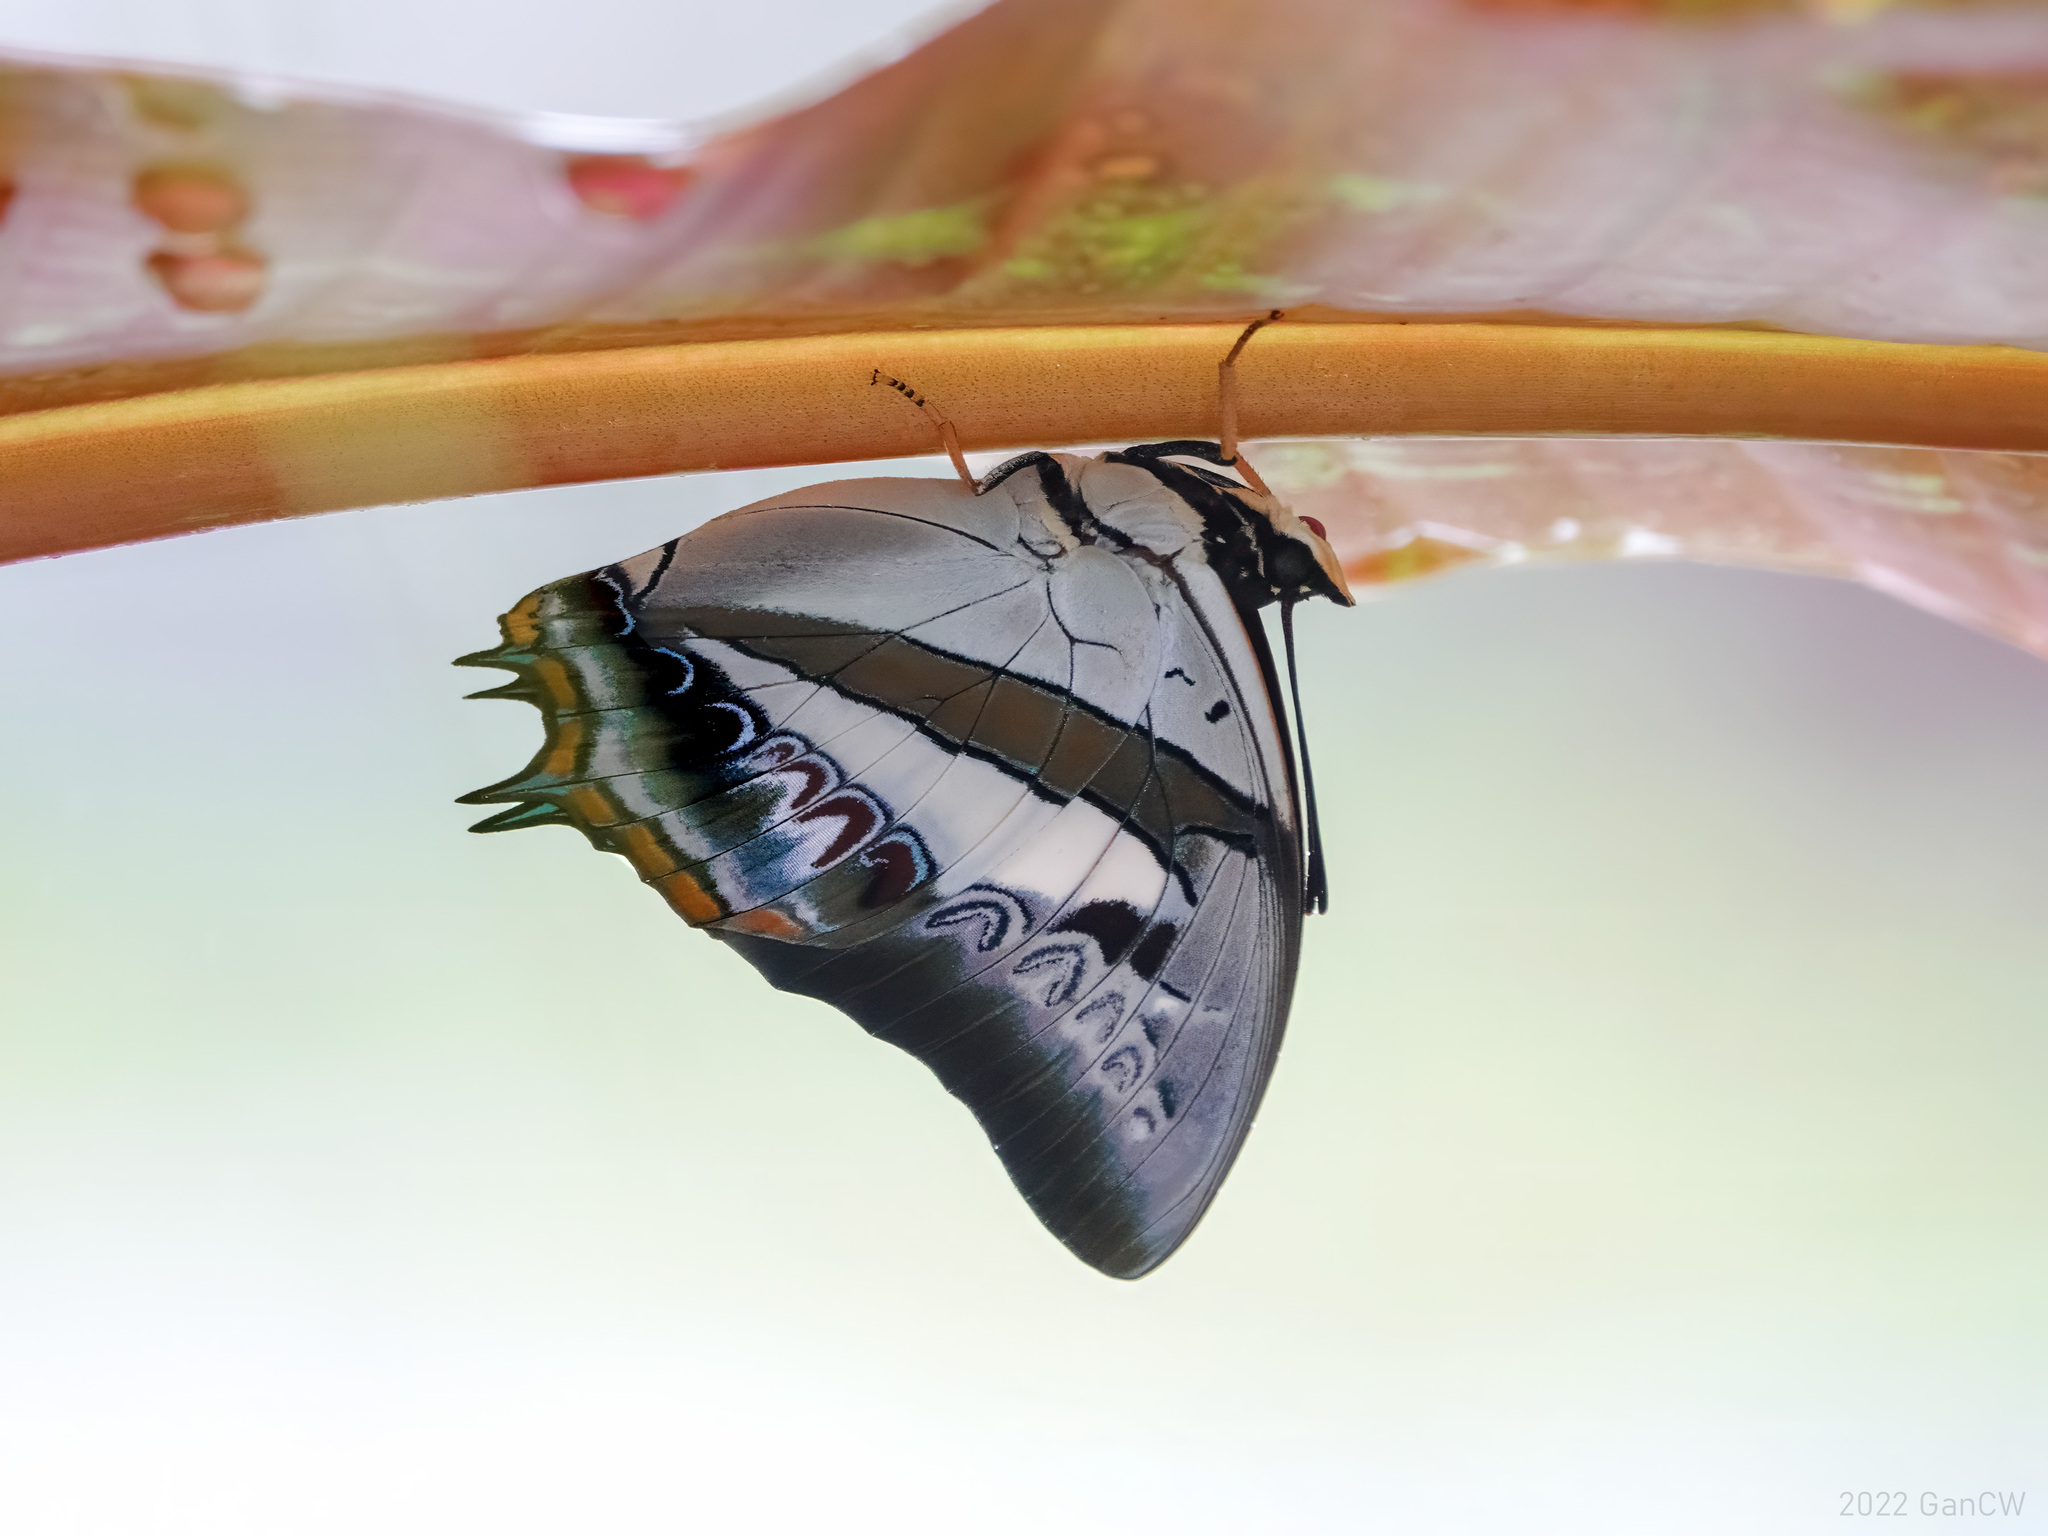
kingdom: Animalia
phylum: Arthropoda
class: Insecta
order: Lepidoptera
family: Nymphalidae
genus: Polyura
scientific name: Polyura schreiber
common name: Blue nawab
